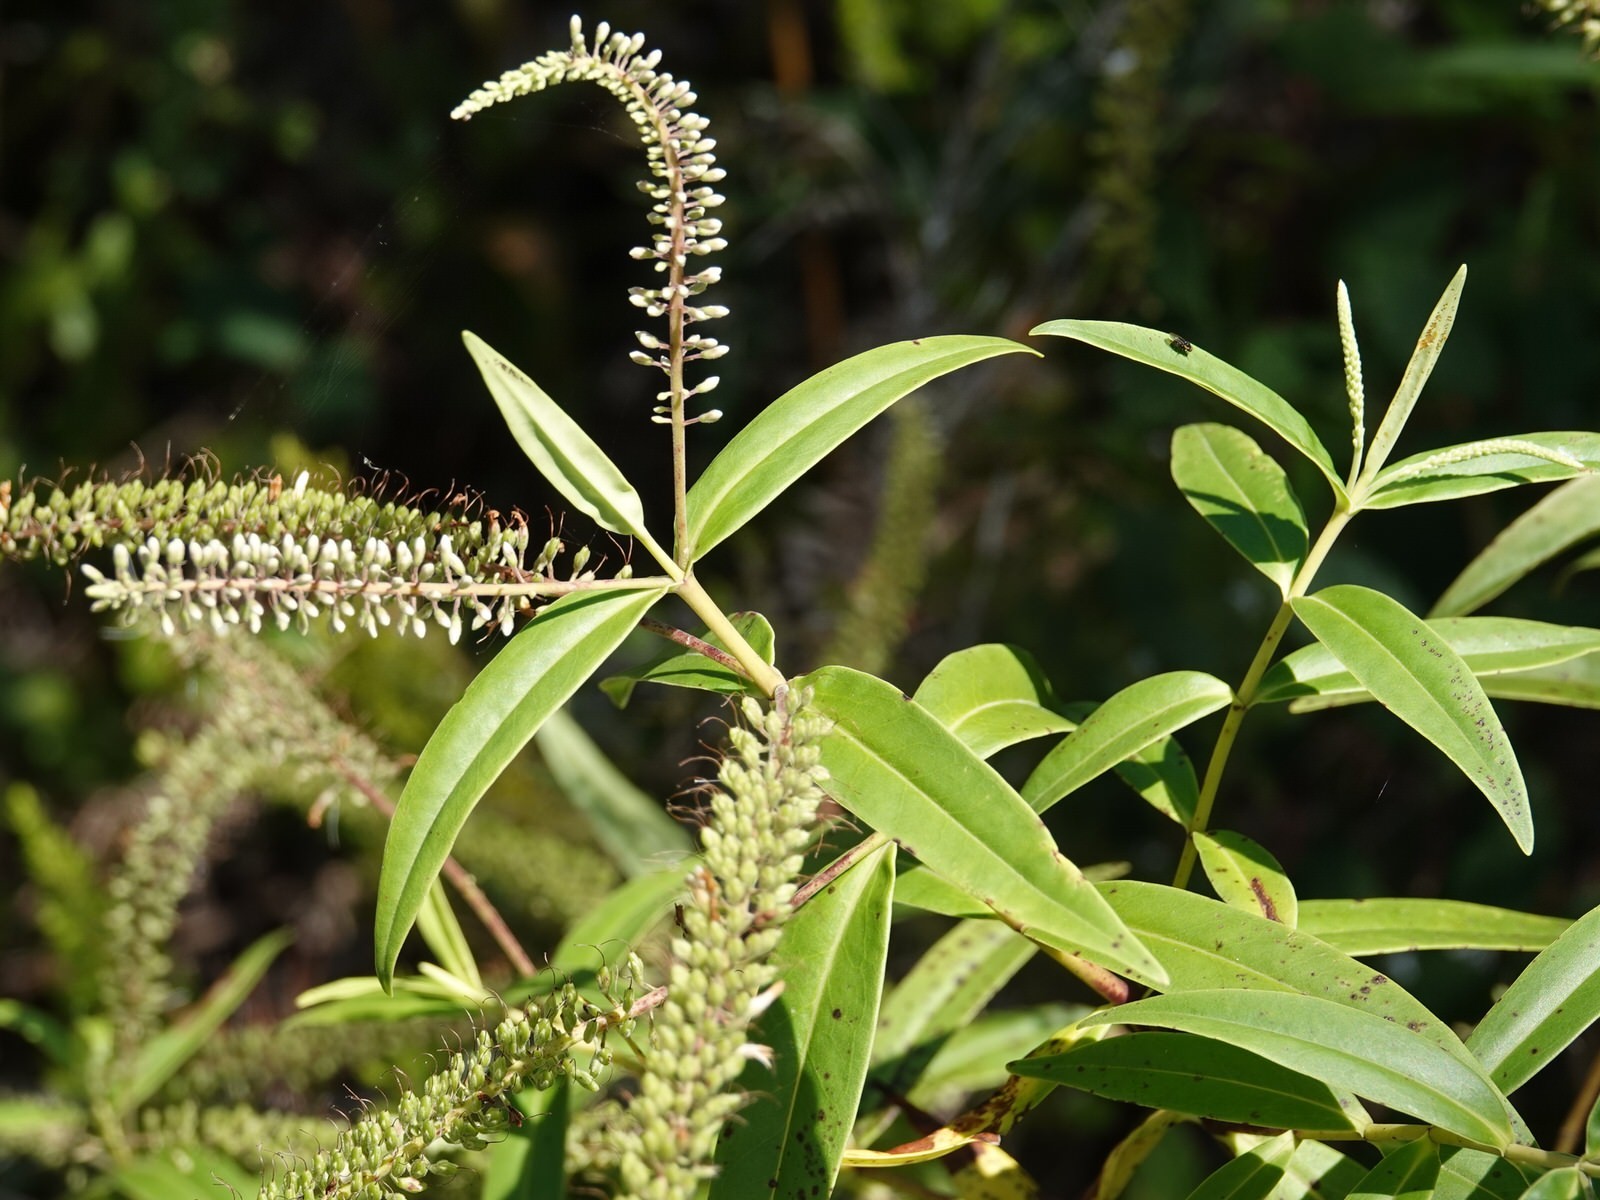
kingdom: Plantae
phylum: Tracheophyta
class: Magnoliopsida
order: Lamiales
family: Plantaginaceae
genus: Veronica
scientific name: Veronica stricta
